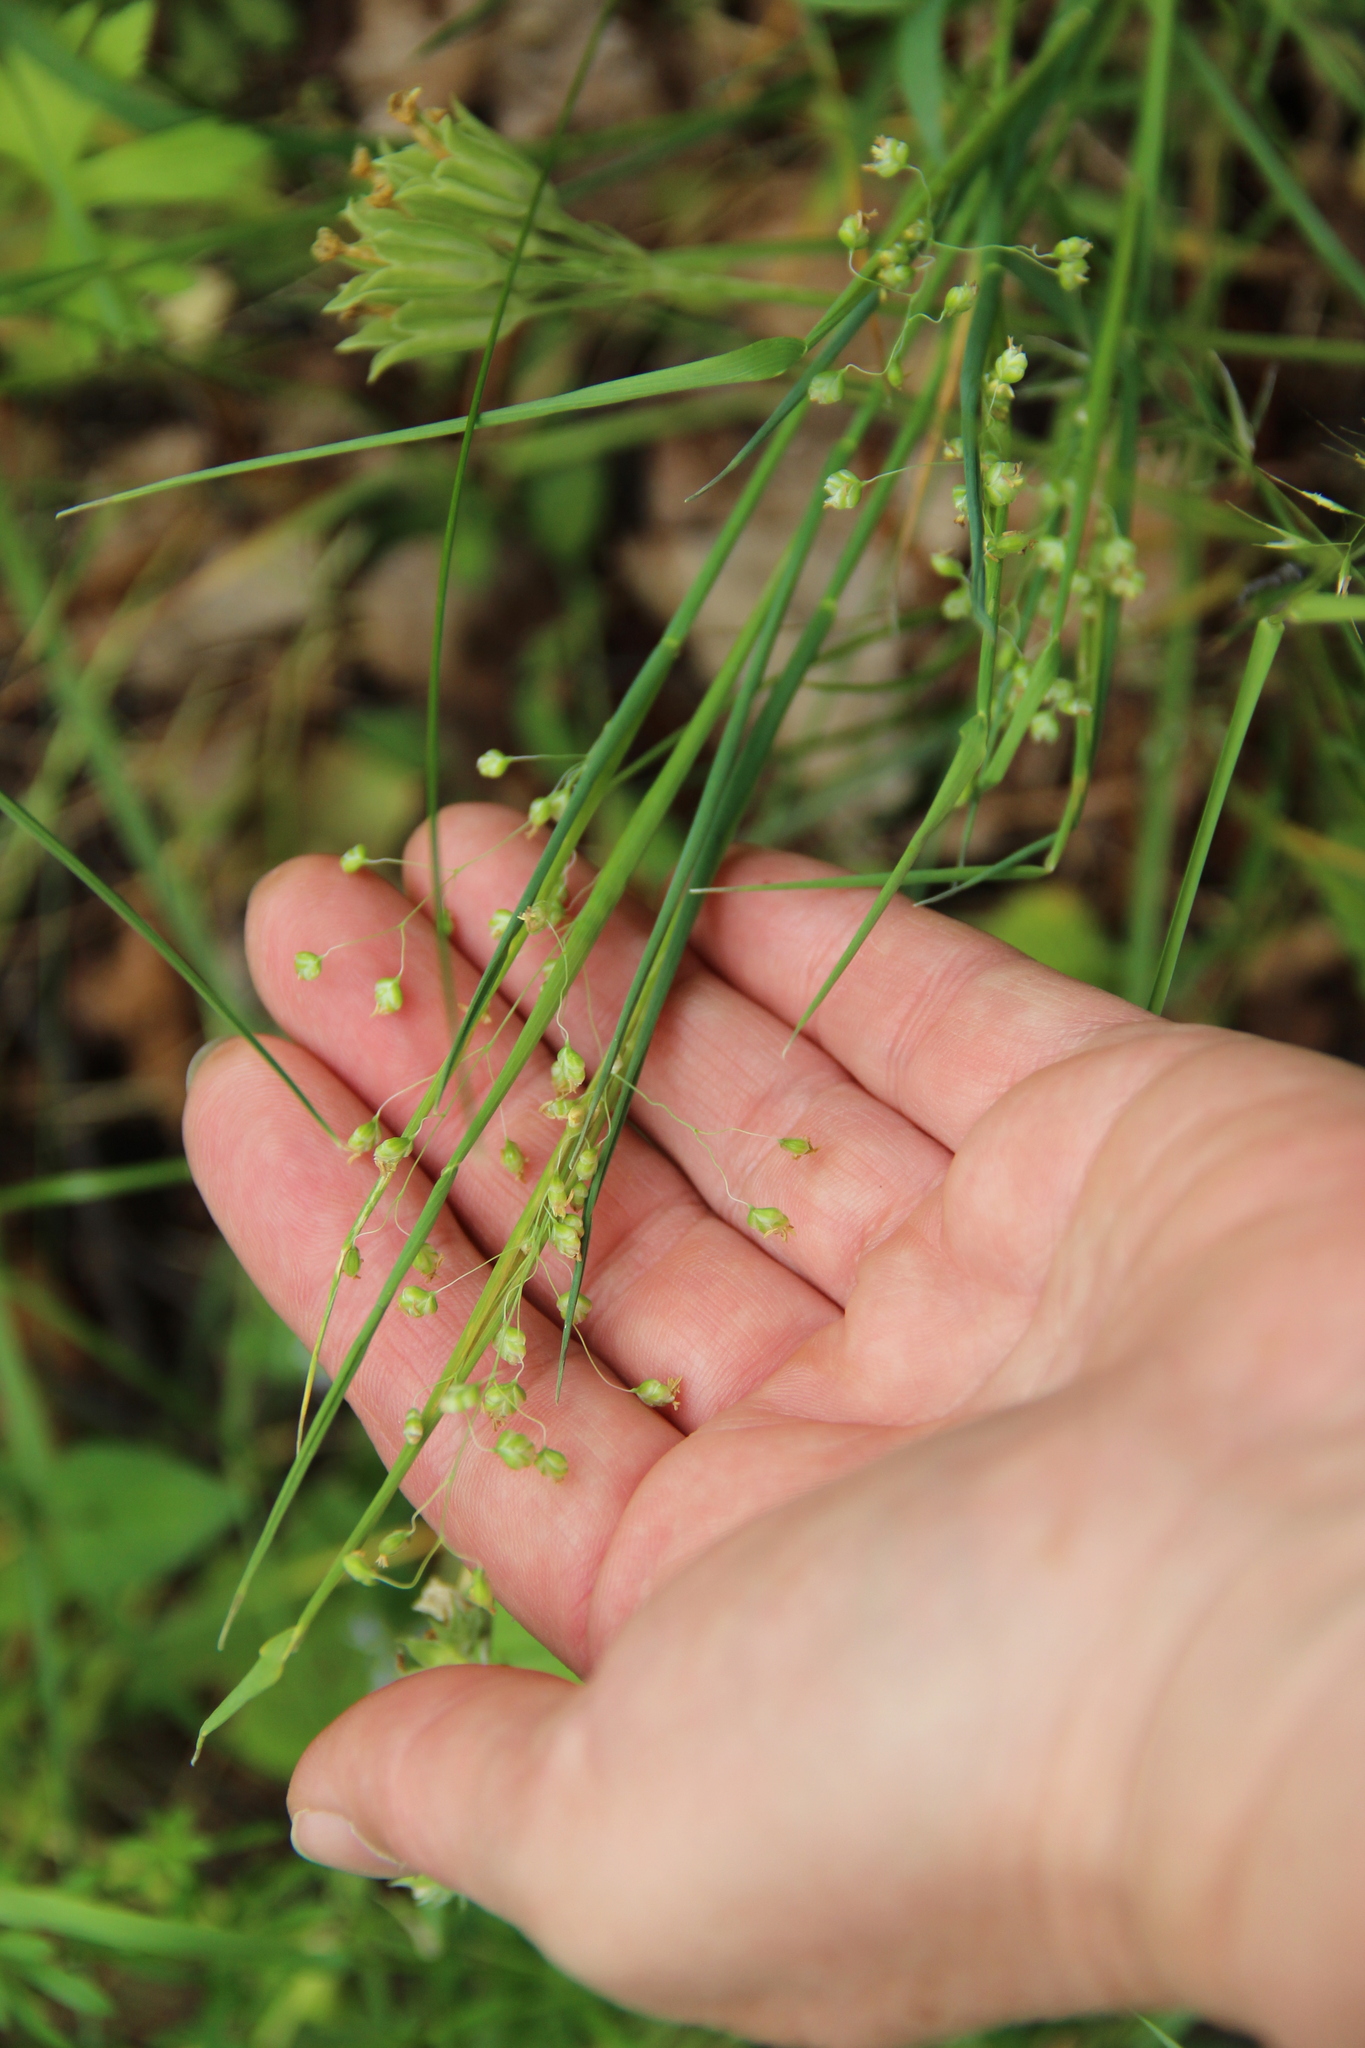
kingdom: Plantae
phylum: Tracheophyta
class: Liliopsida
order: Poales
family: Poaceae
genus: Briza
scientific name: Briza media
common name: Quaking grass
